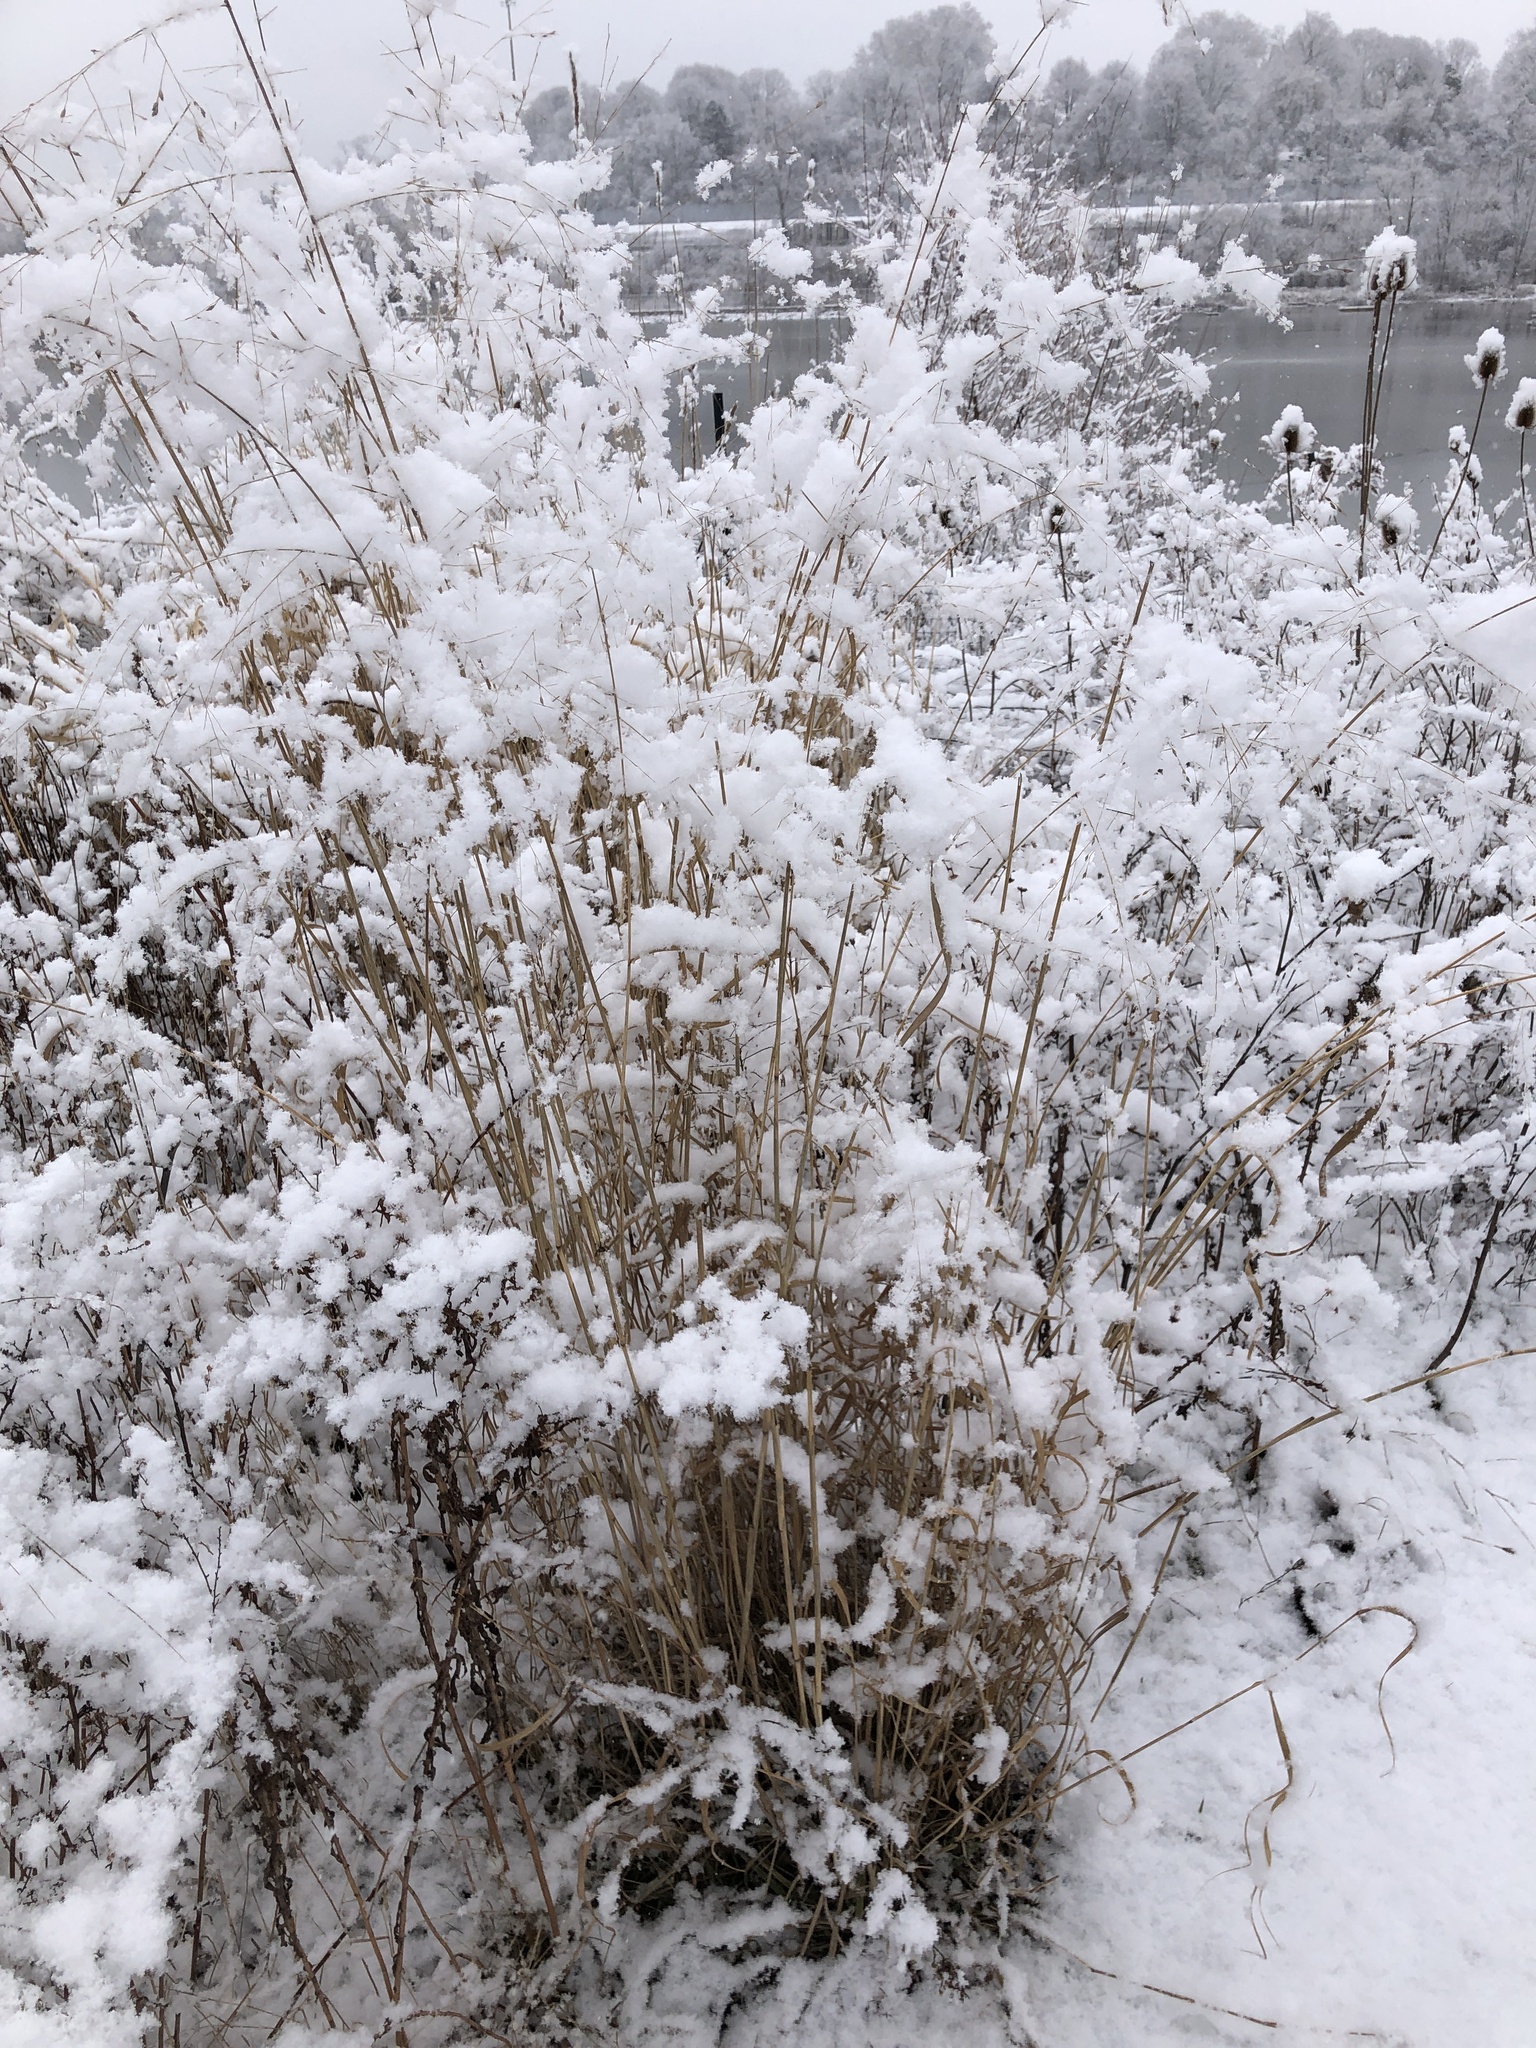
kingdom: Plantae
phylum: Tracheophyta
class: Liliopsida
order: Poales
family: Poaceae
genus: Panicum
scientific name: Panicum virgatum
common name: Switchgrass
